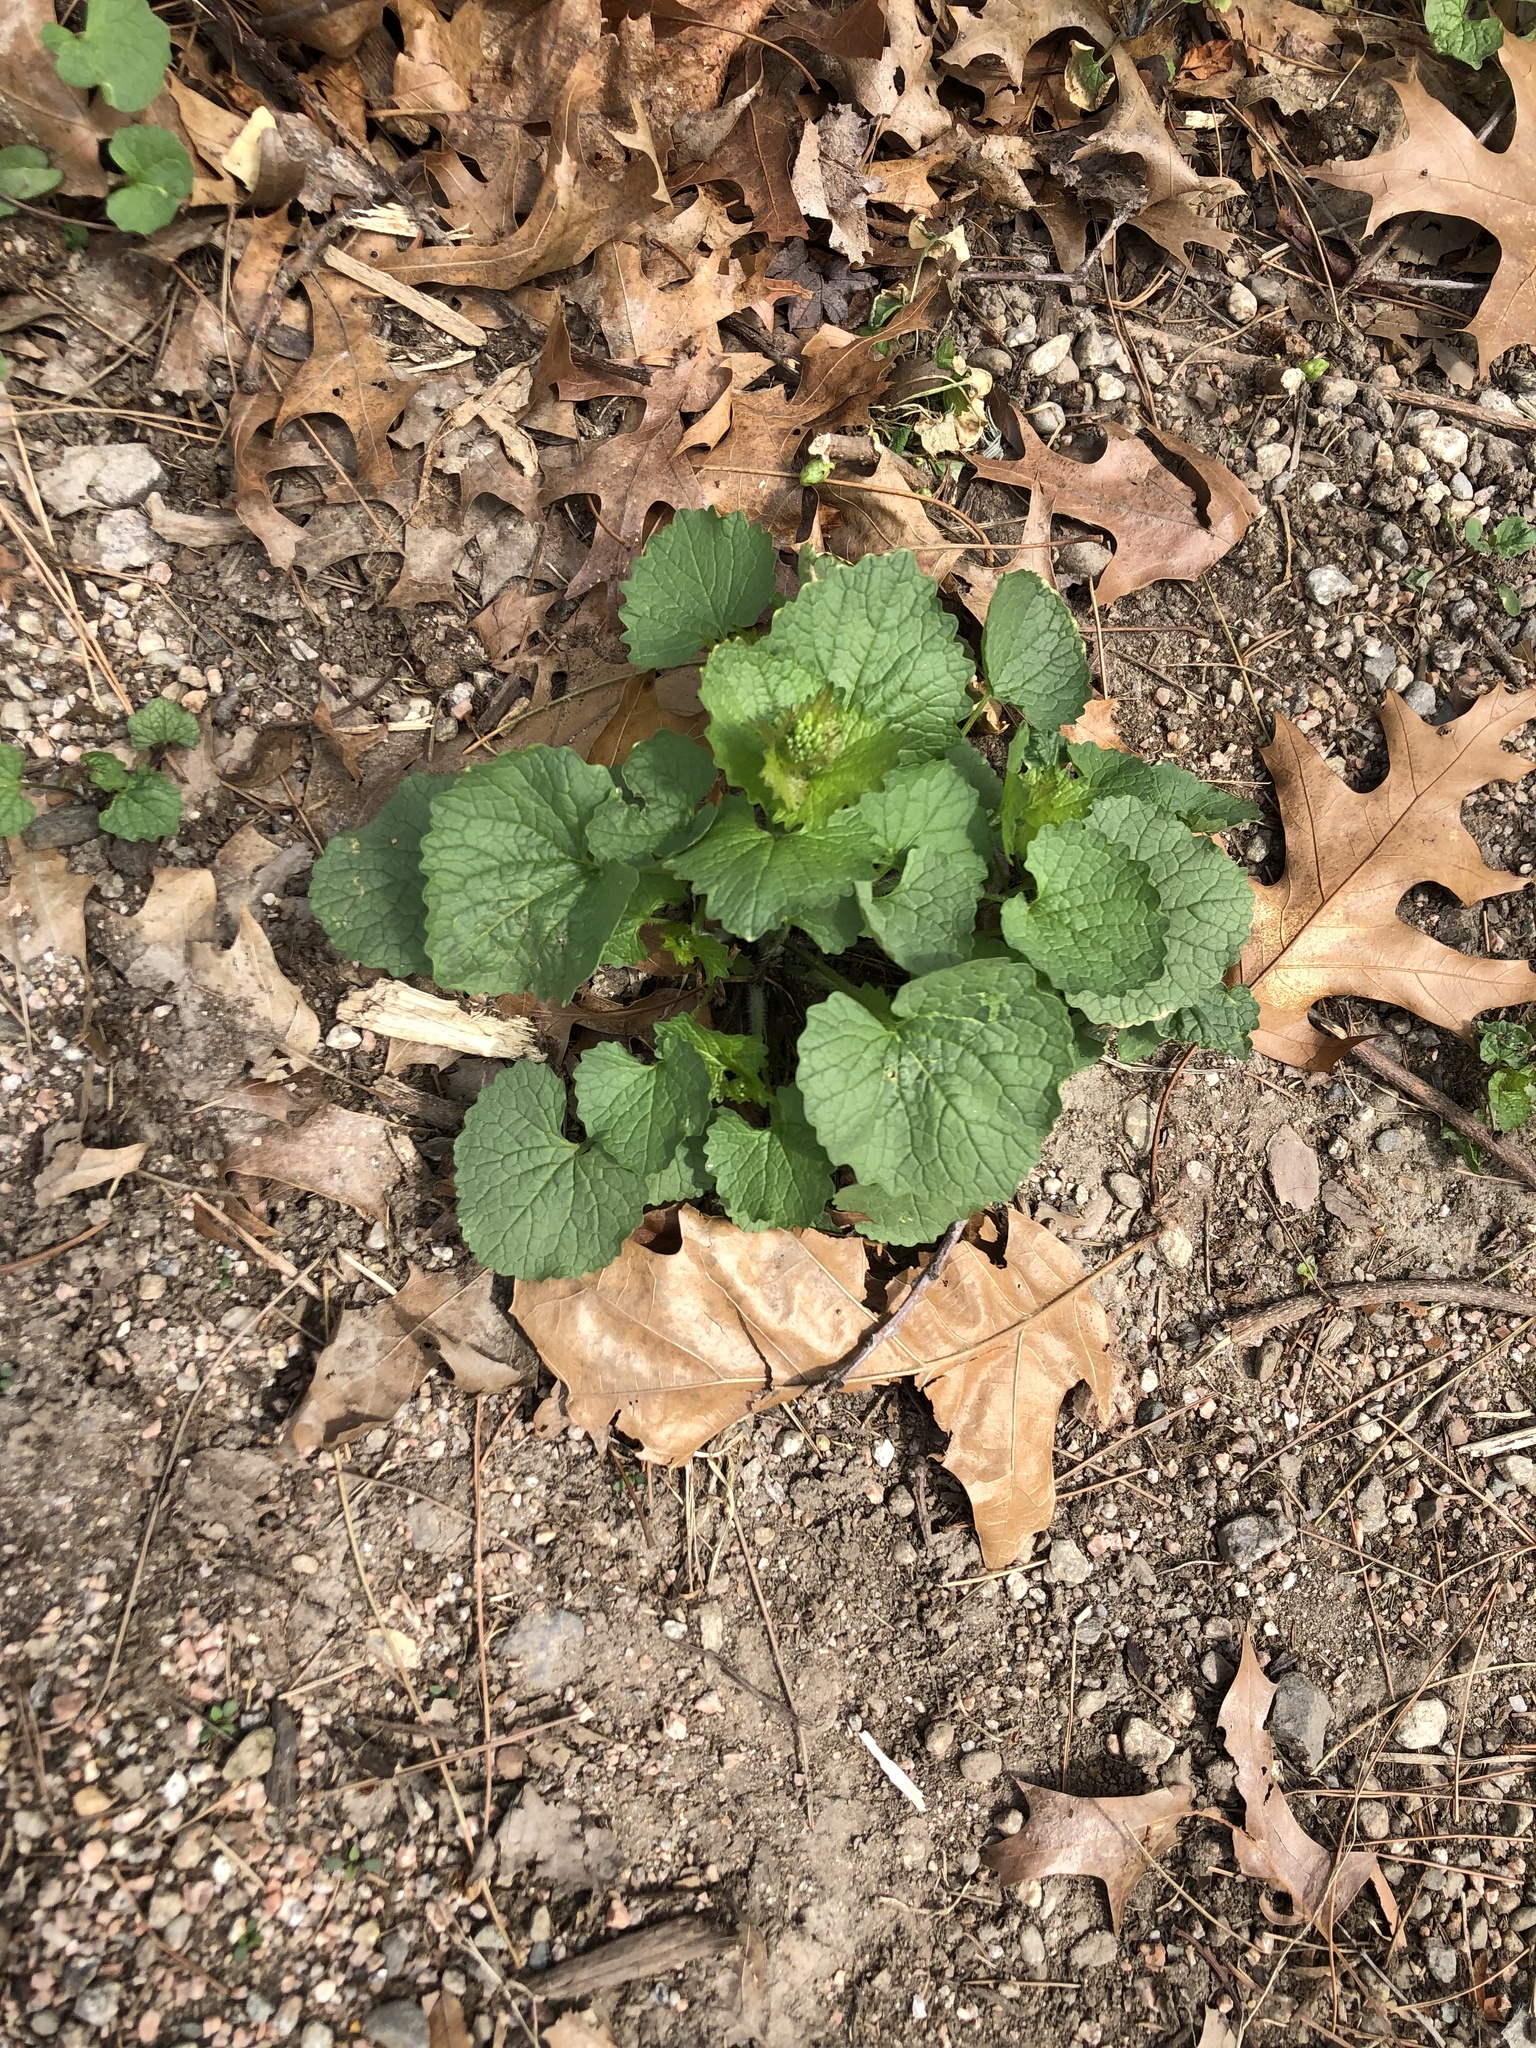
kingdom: Plantae
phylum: Tracheophyta
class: Magnoliopsida
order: Brassicales
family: Brassicaceae
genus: Alliaria
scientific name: Alliaria petiolata
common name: Garlic mustard
